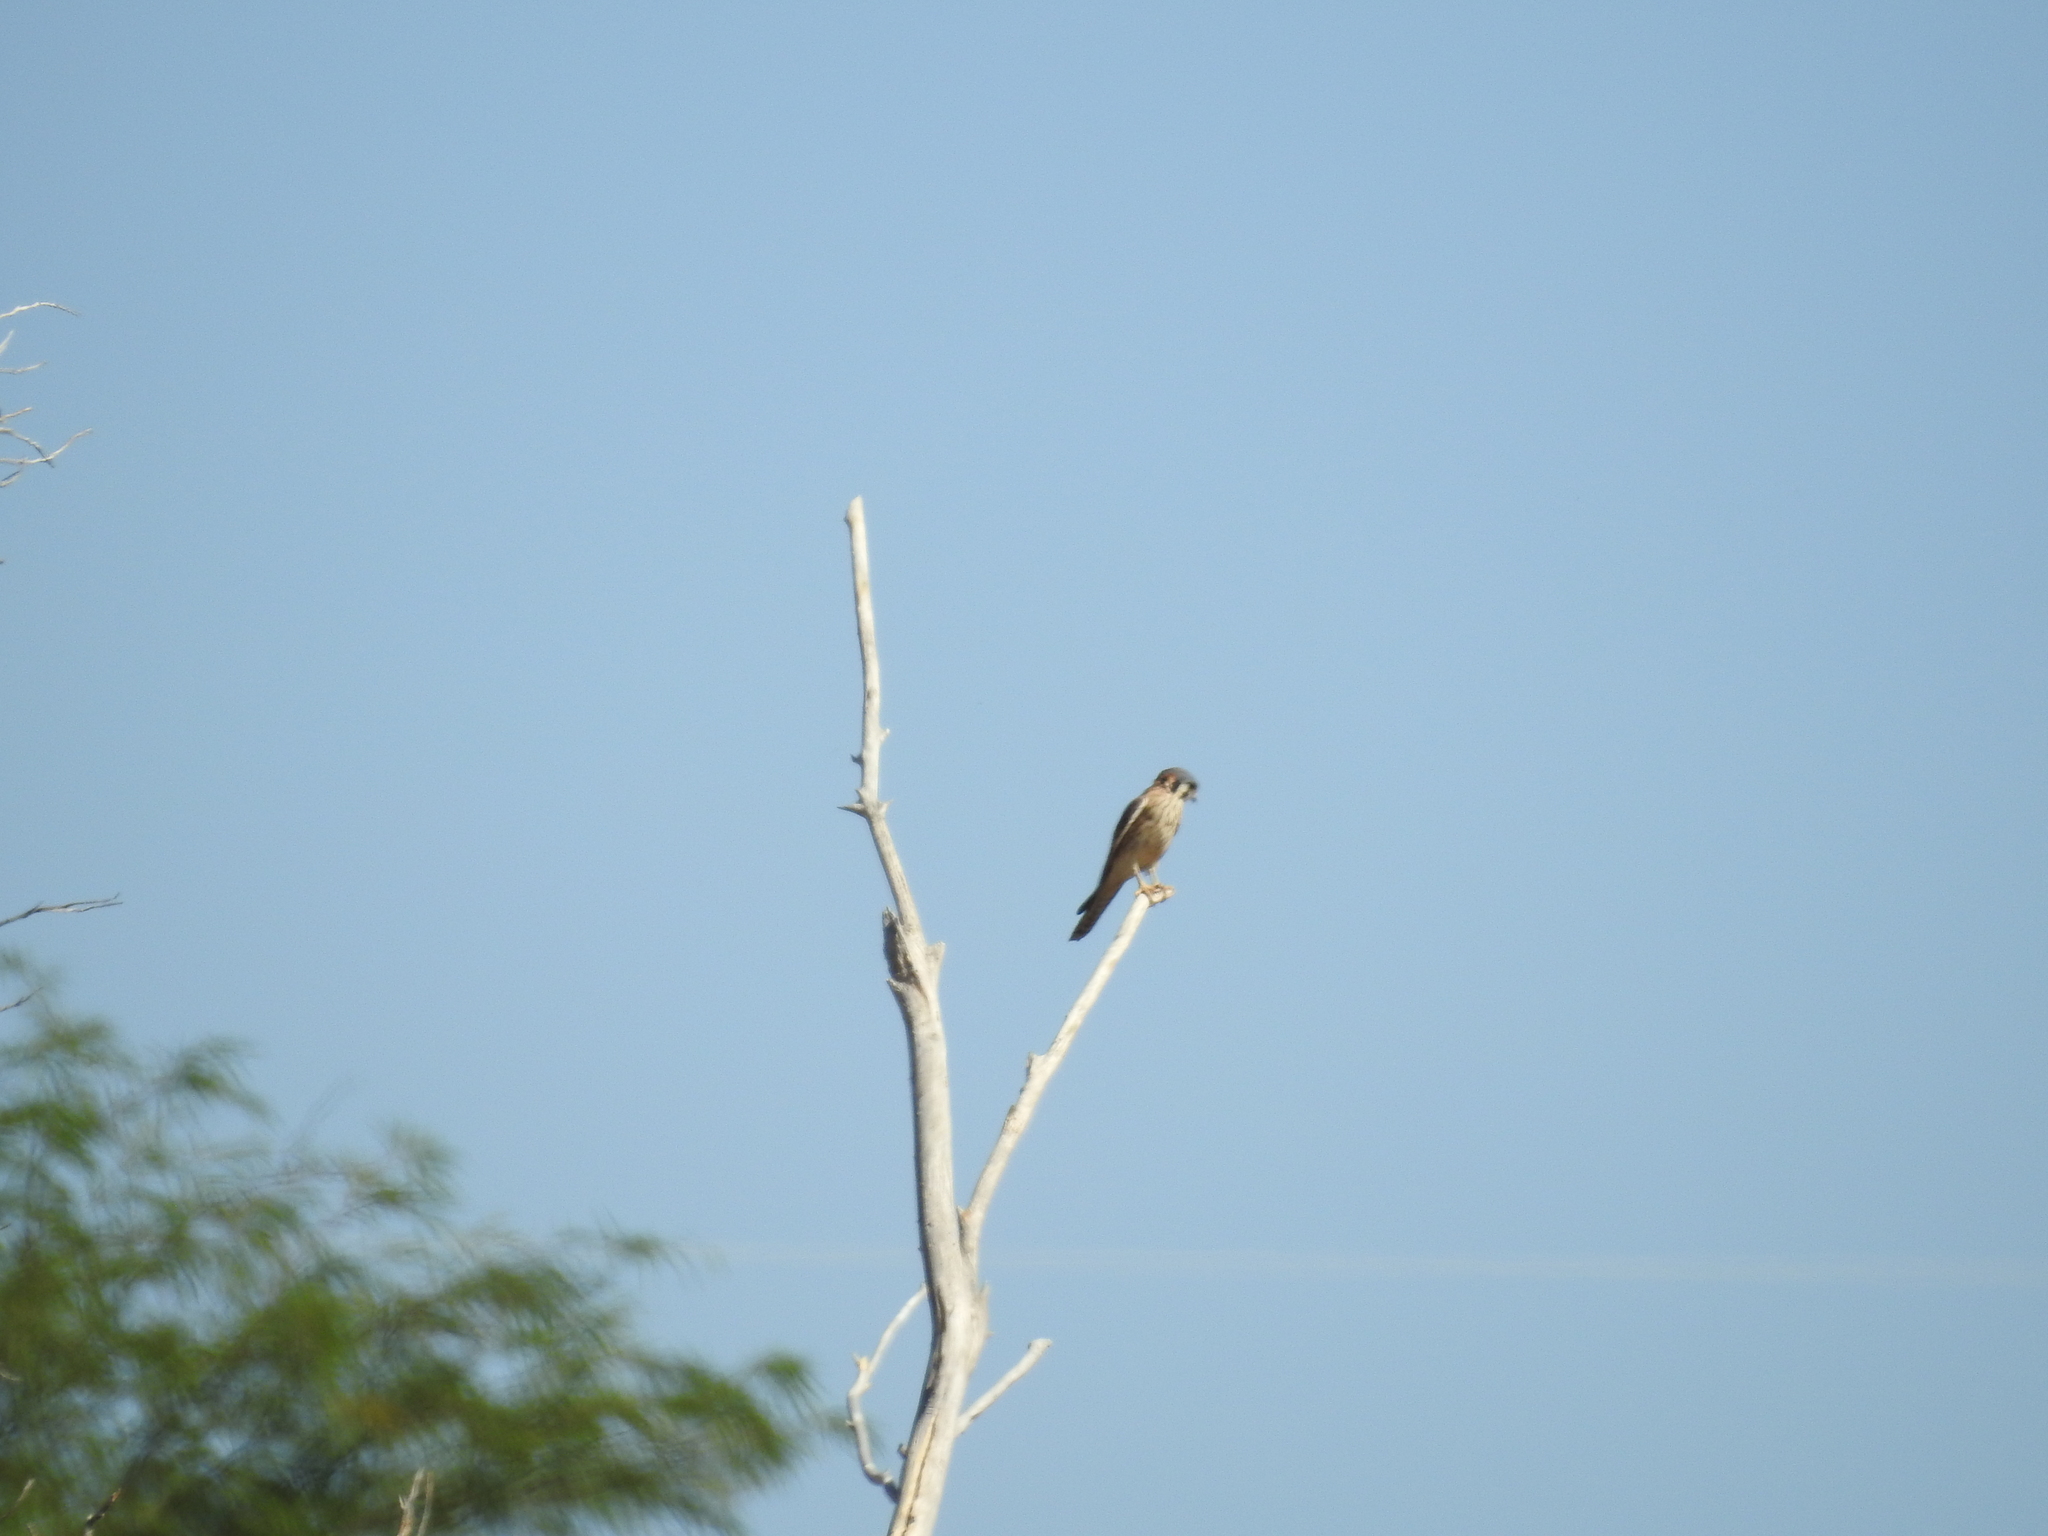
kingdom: Animalia
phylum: Chordata
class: Aves
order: Falconiformes
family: Falconidae
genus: Falco
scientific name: Falco sparverius
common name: American kestrel
